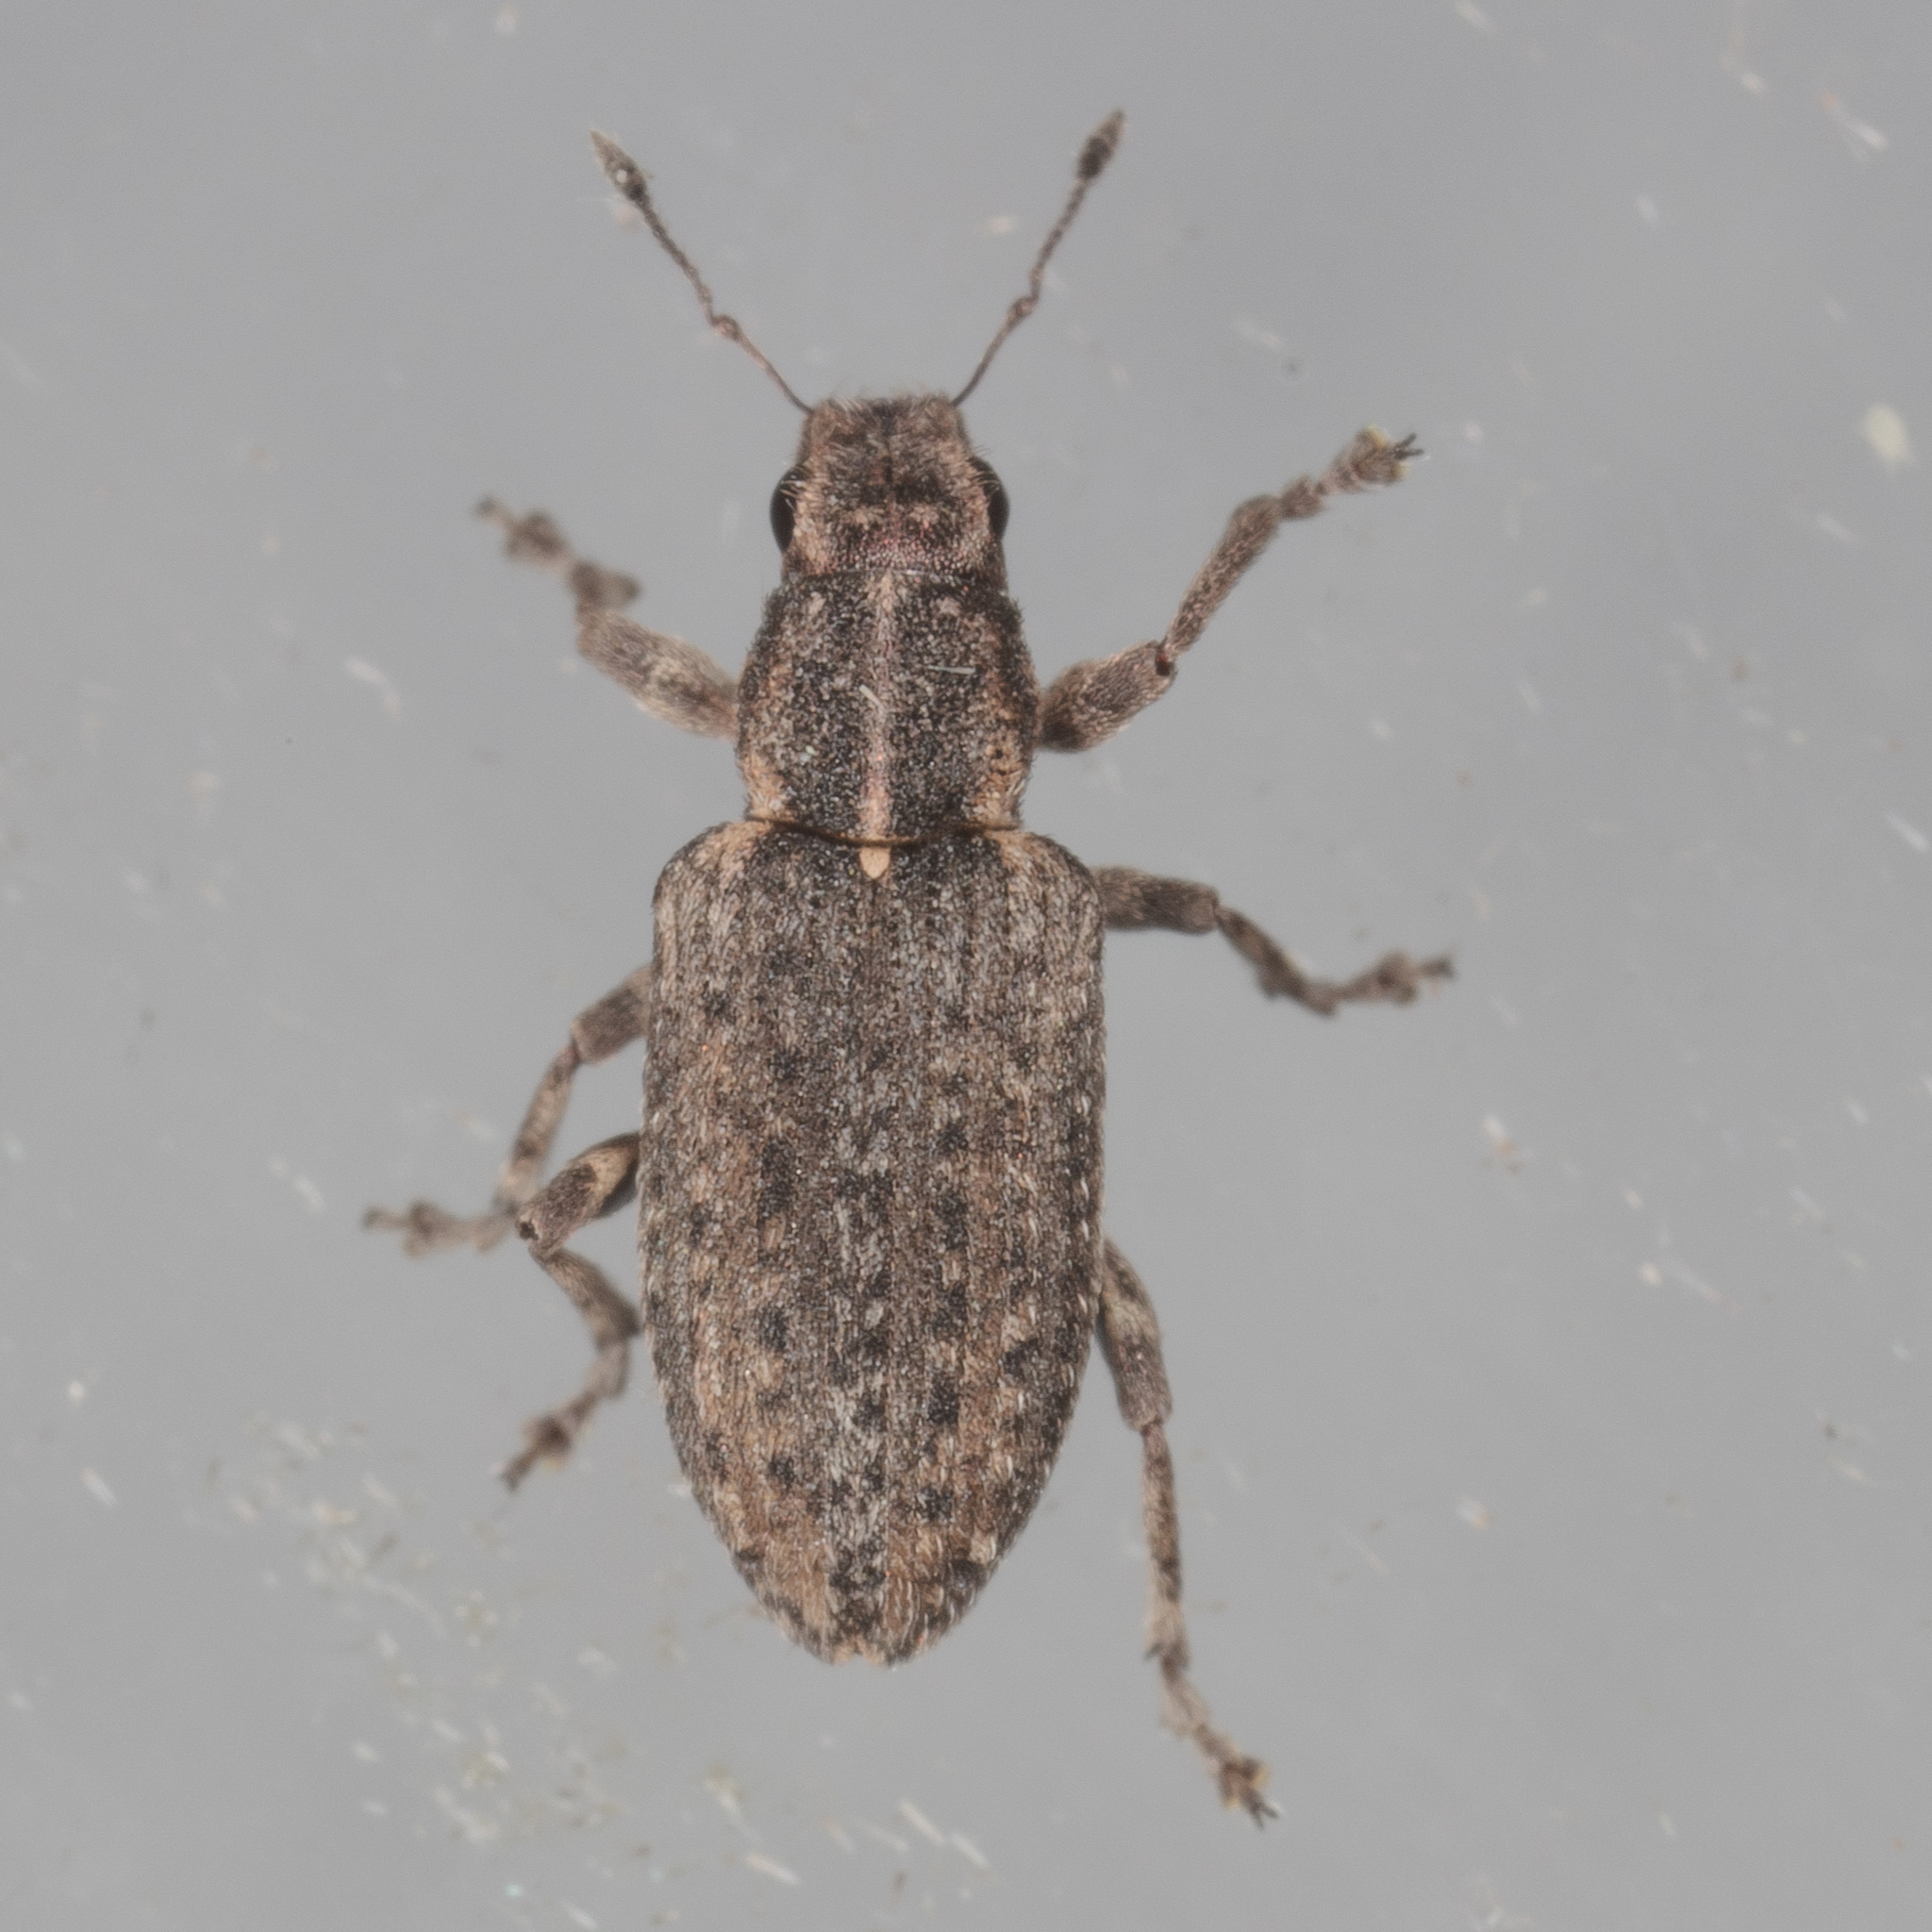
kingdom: Animalia
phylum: Arthropoda
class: Insecta
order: Coleoptera
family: Curculionidae
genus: Sitones
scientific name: Sitones californius
